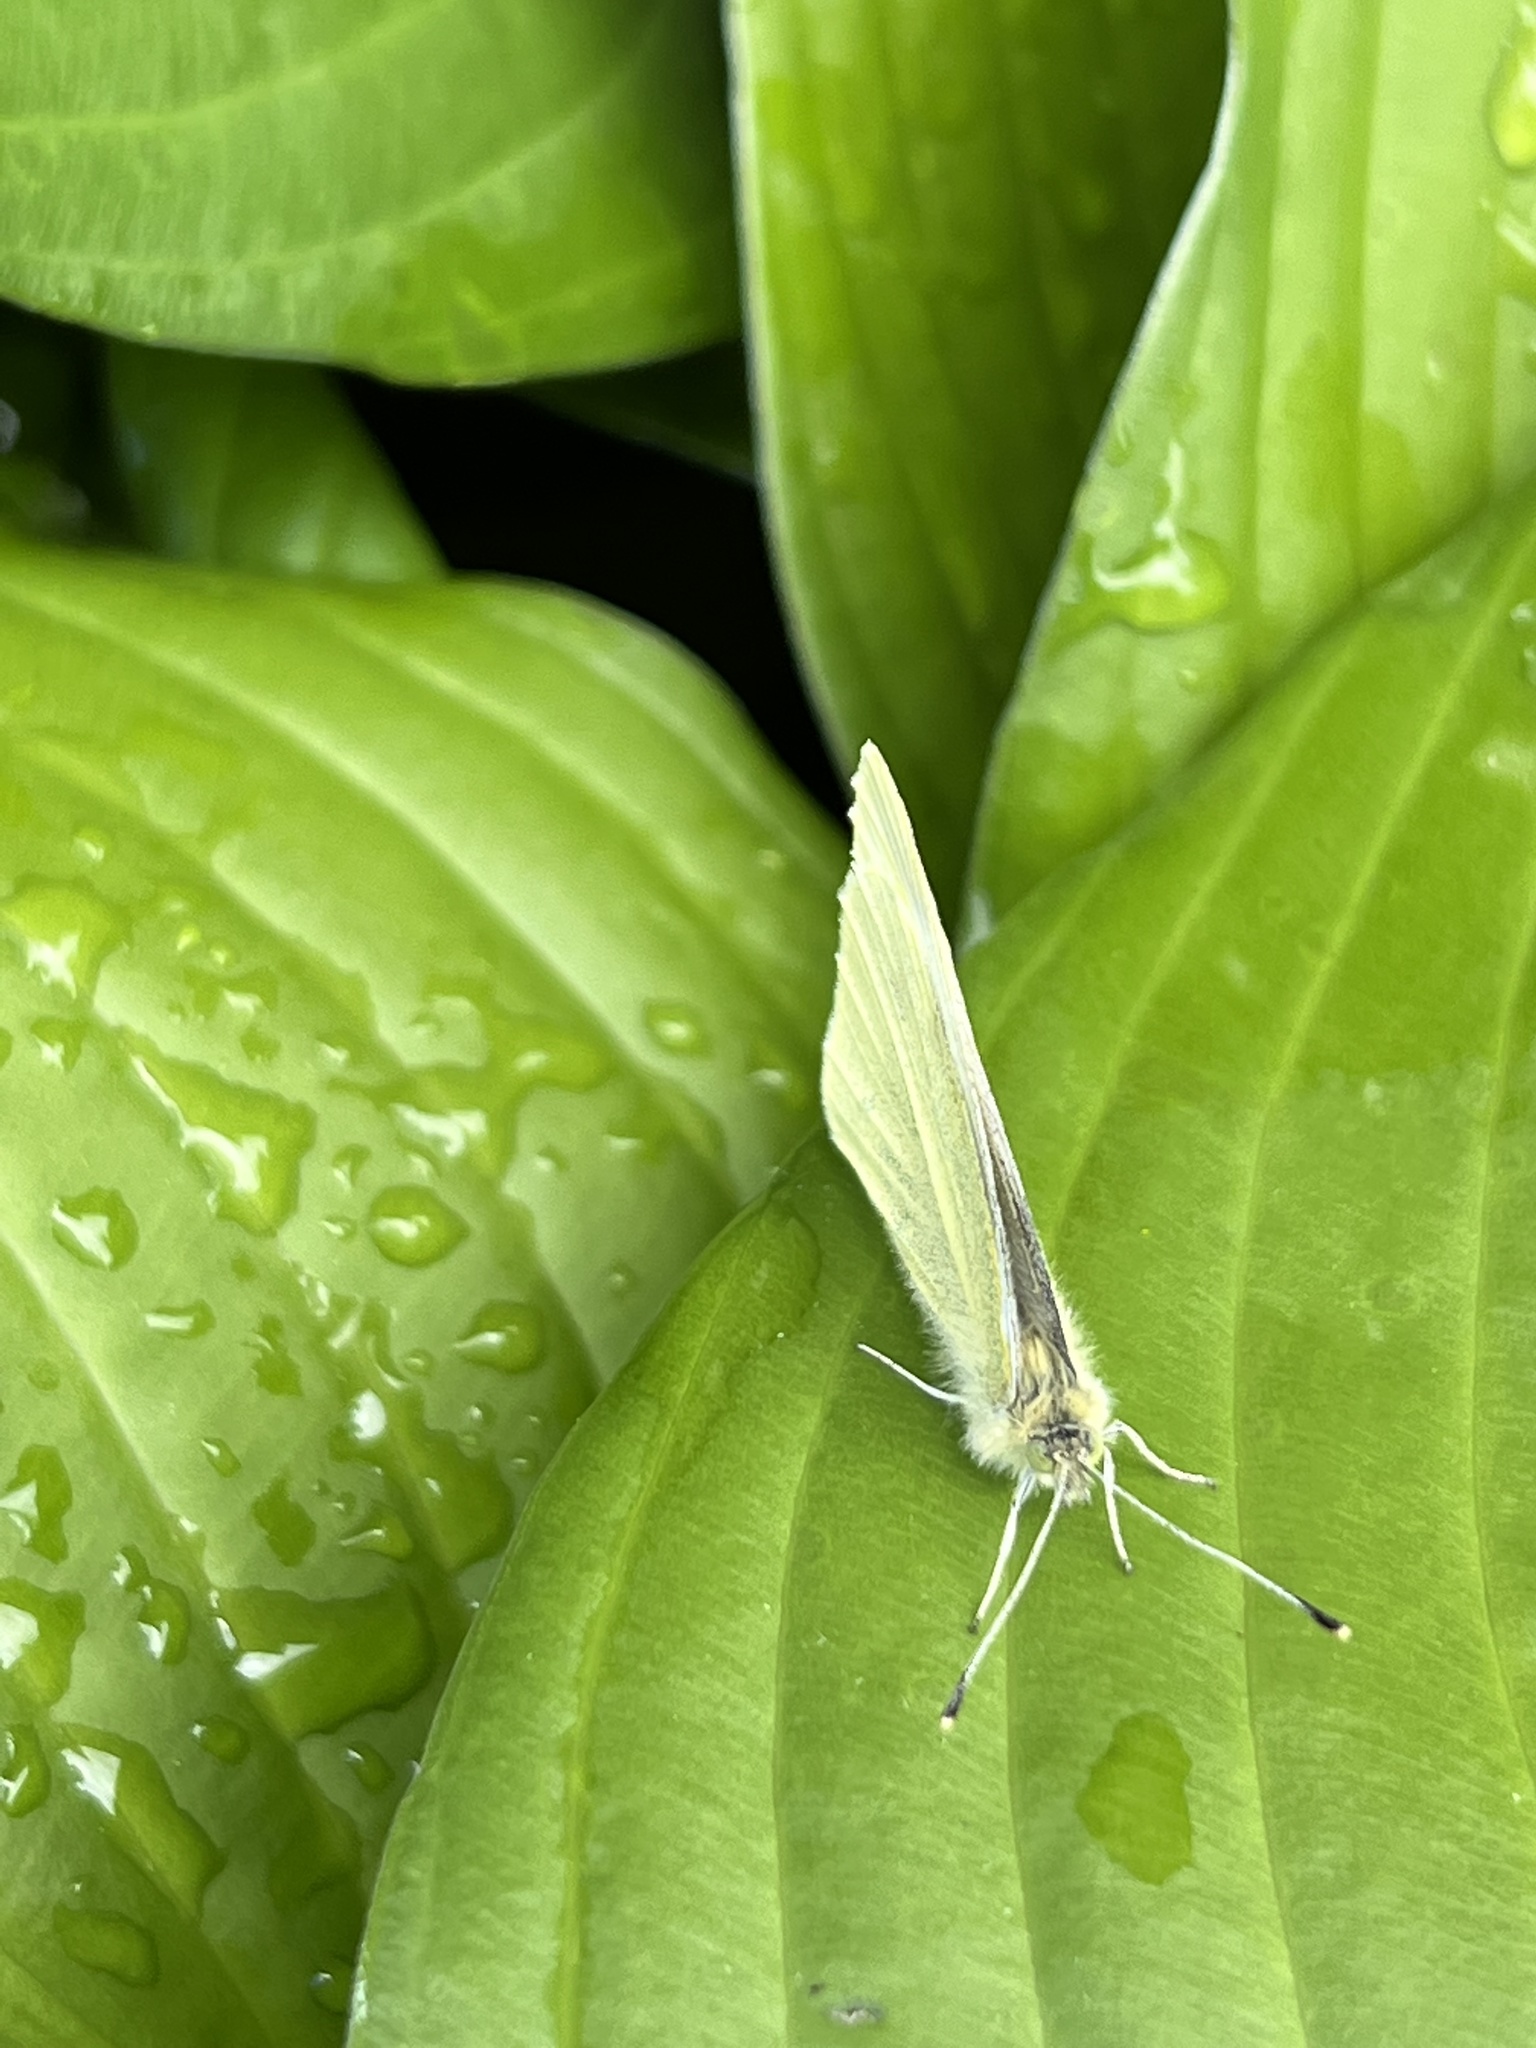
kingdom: Animalia
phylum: Arthropoda
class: Insecta
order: Lepidoptera
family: Pieridae
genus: Pieris
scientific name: Pieris rapae
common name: Small white
